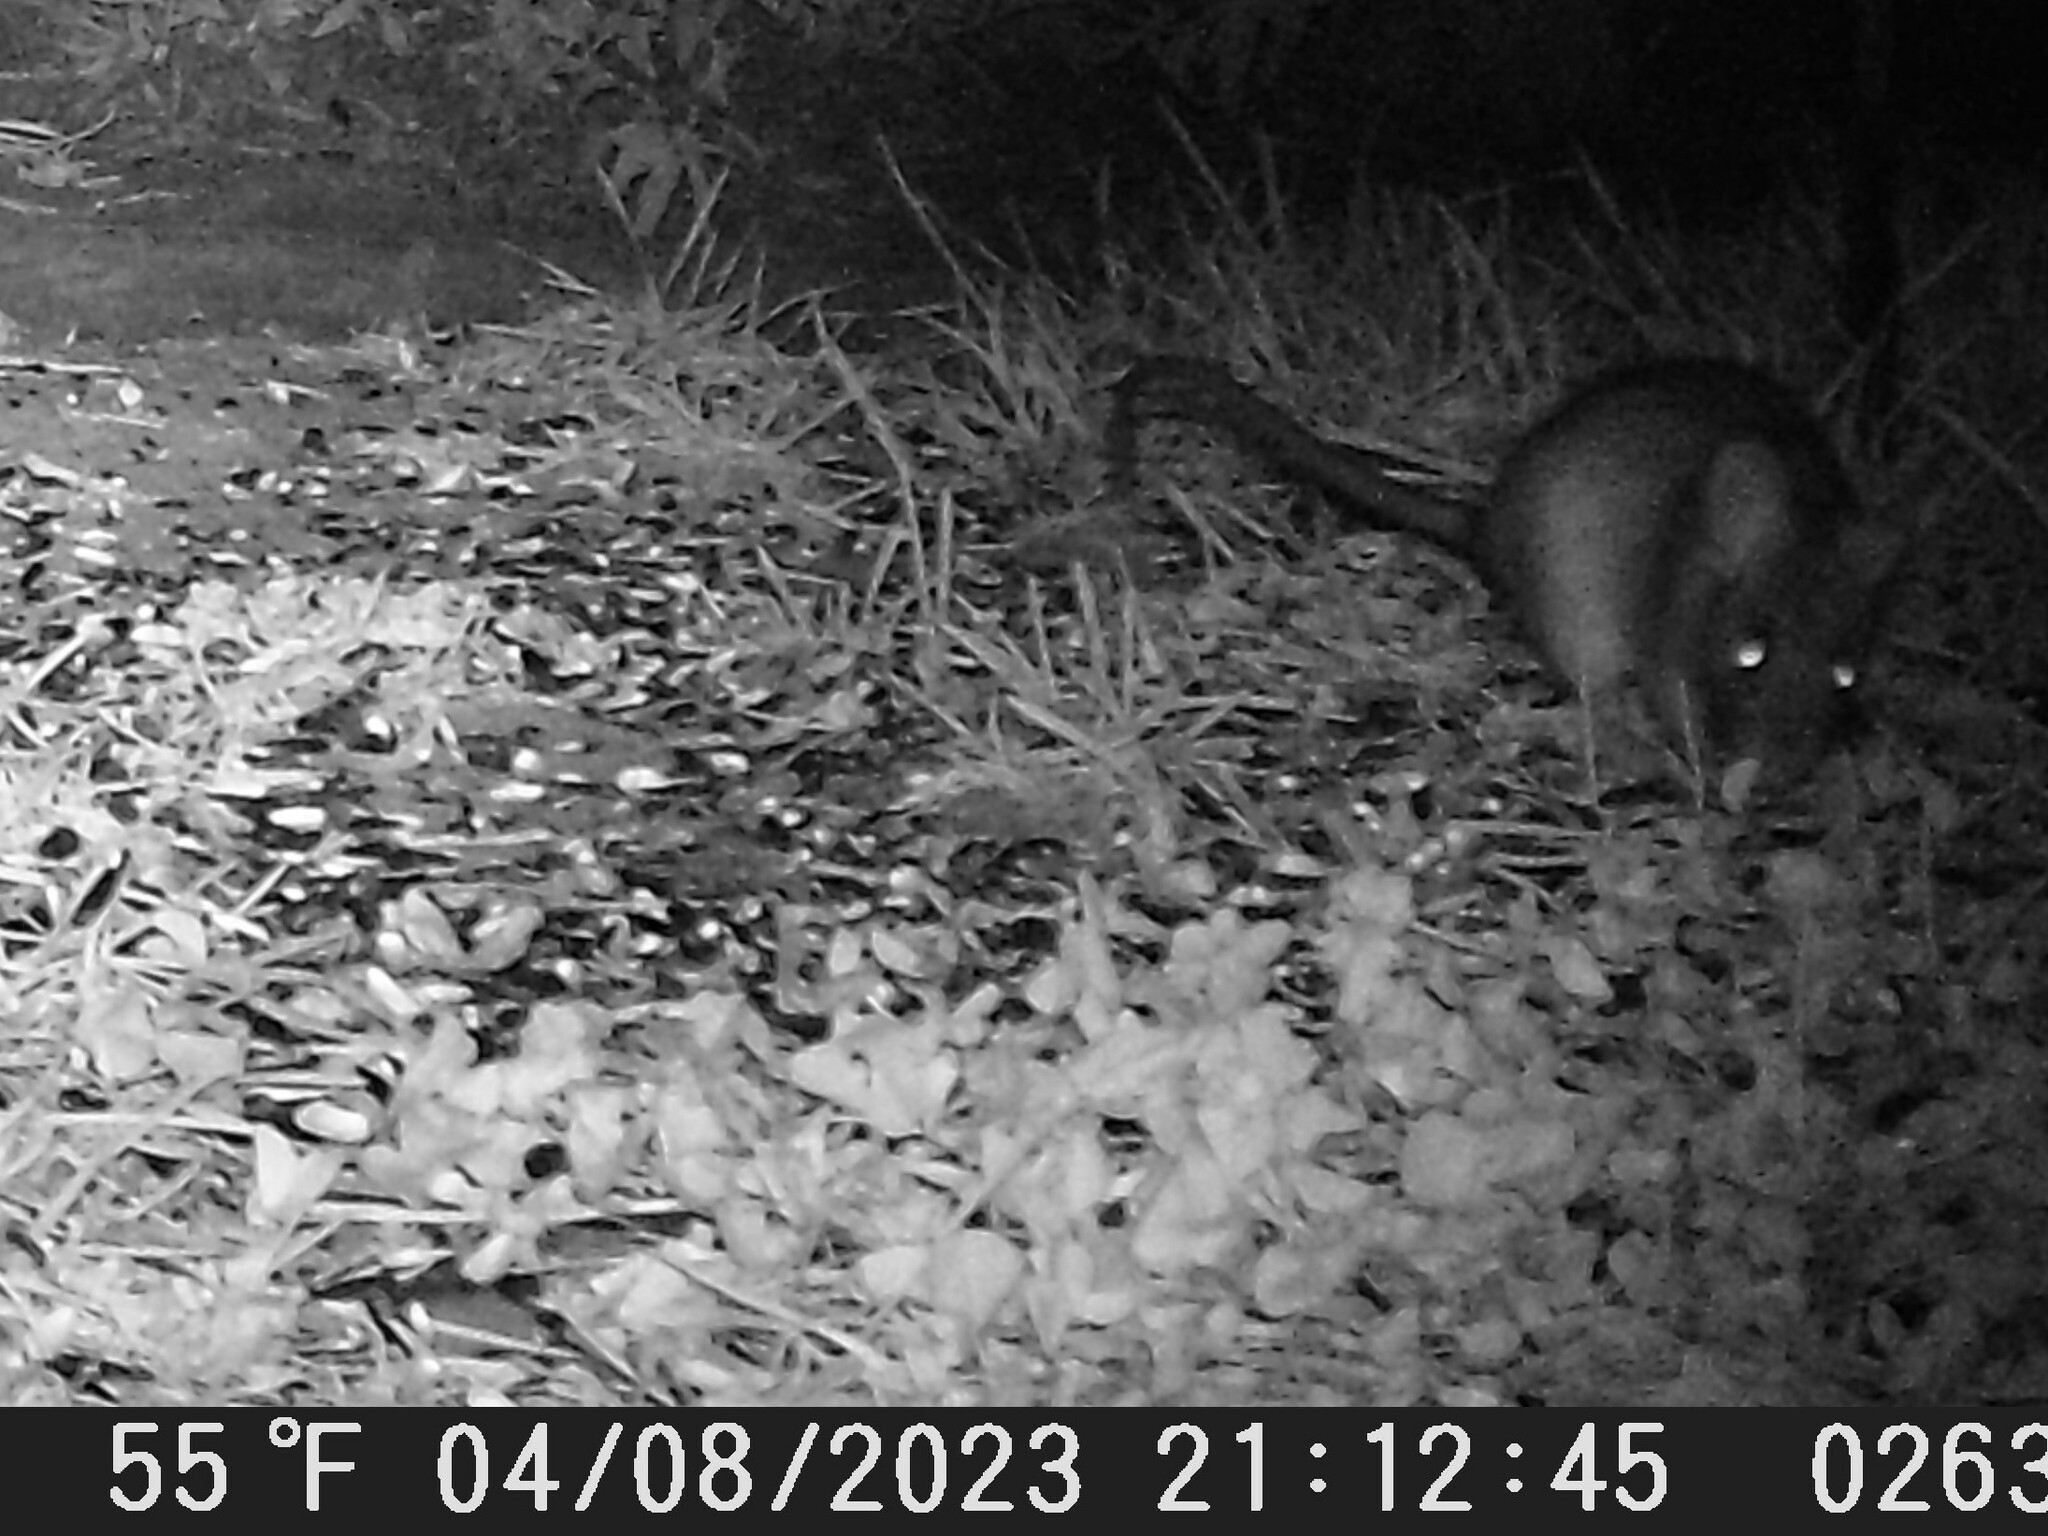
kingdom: Animalia
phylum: Chordata
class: Mammalia
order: Rodentia
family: Cricetidae
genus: Neotoma
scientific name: Neotoma fuscipes
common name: Dusky-footed woodrat
